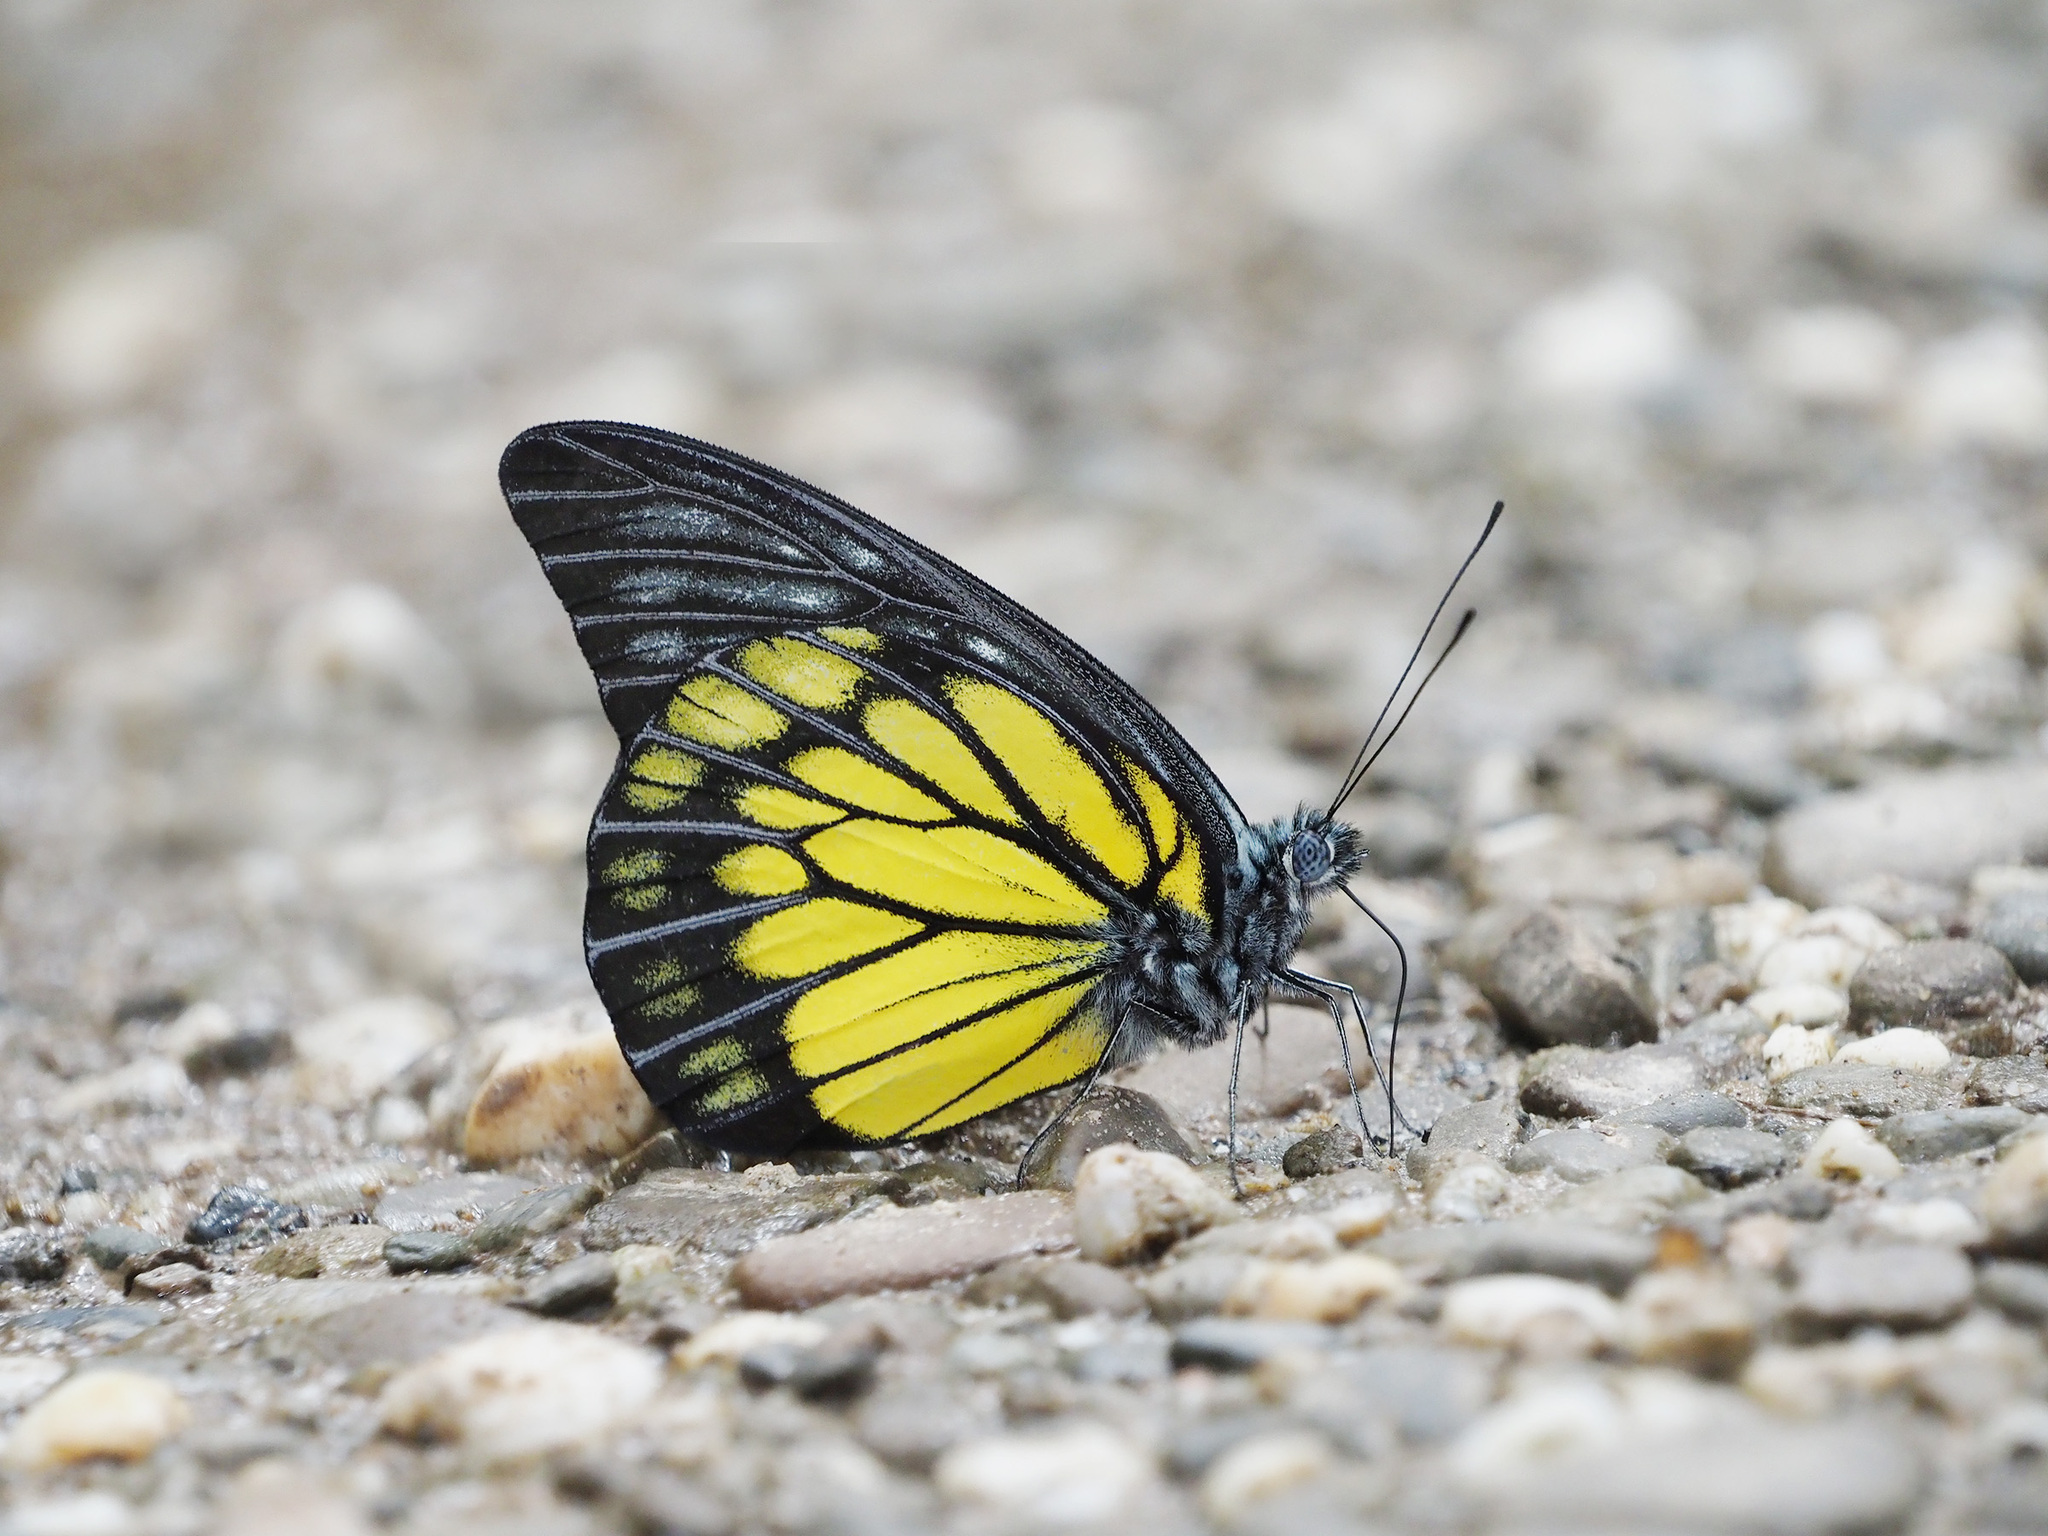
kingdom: Animalia
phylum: Arthropoda
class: Insecta
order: Lepidoptera
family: Pieridae
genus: Prioneris
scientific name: Prioneris cornelia
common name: Bornean sawtooth
